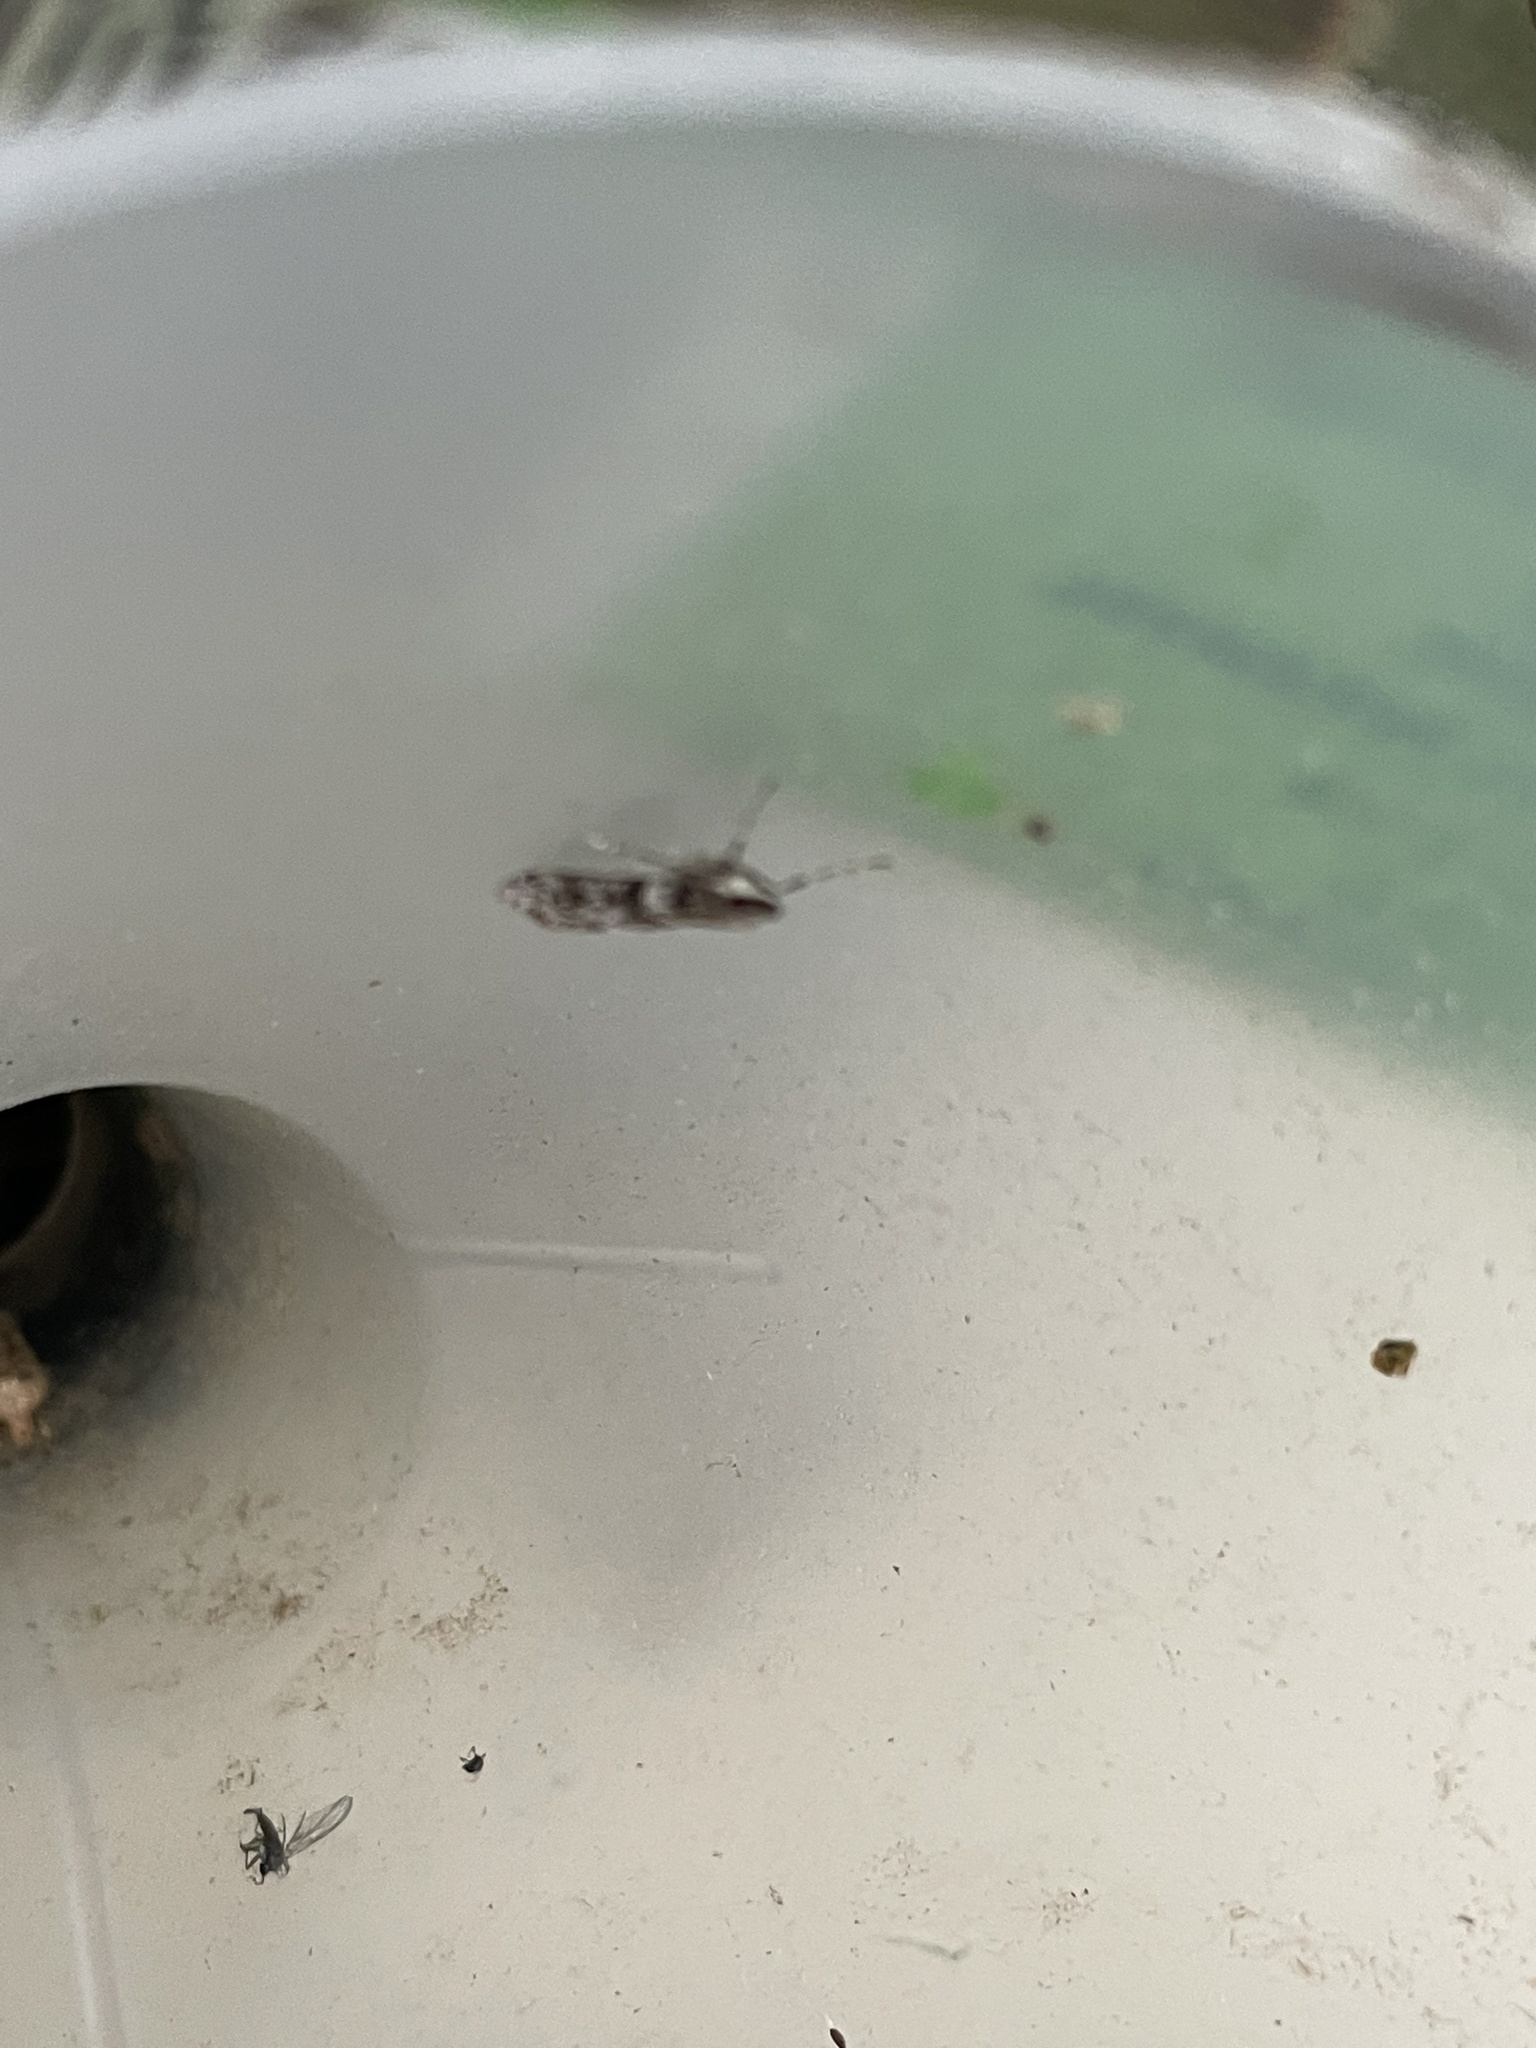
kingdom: Animalia
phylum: Arthropoda
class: Insecta
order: Lepidoptera
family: Crambidae
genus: Eudonia
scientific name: Eudonia angustea
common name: Narrow-winged grey
